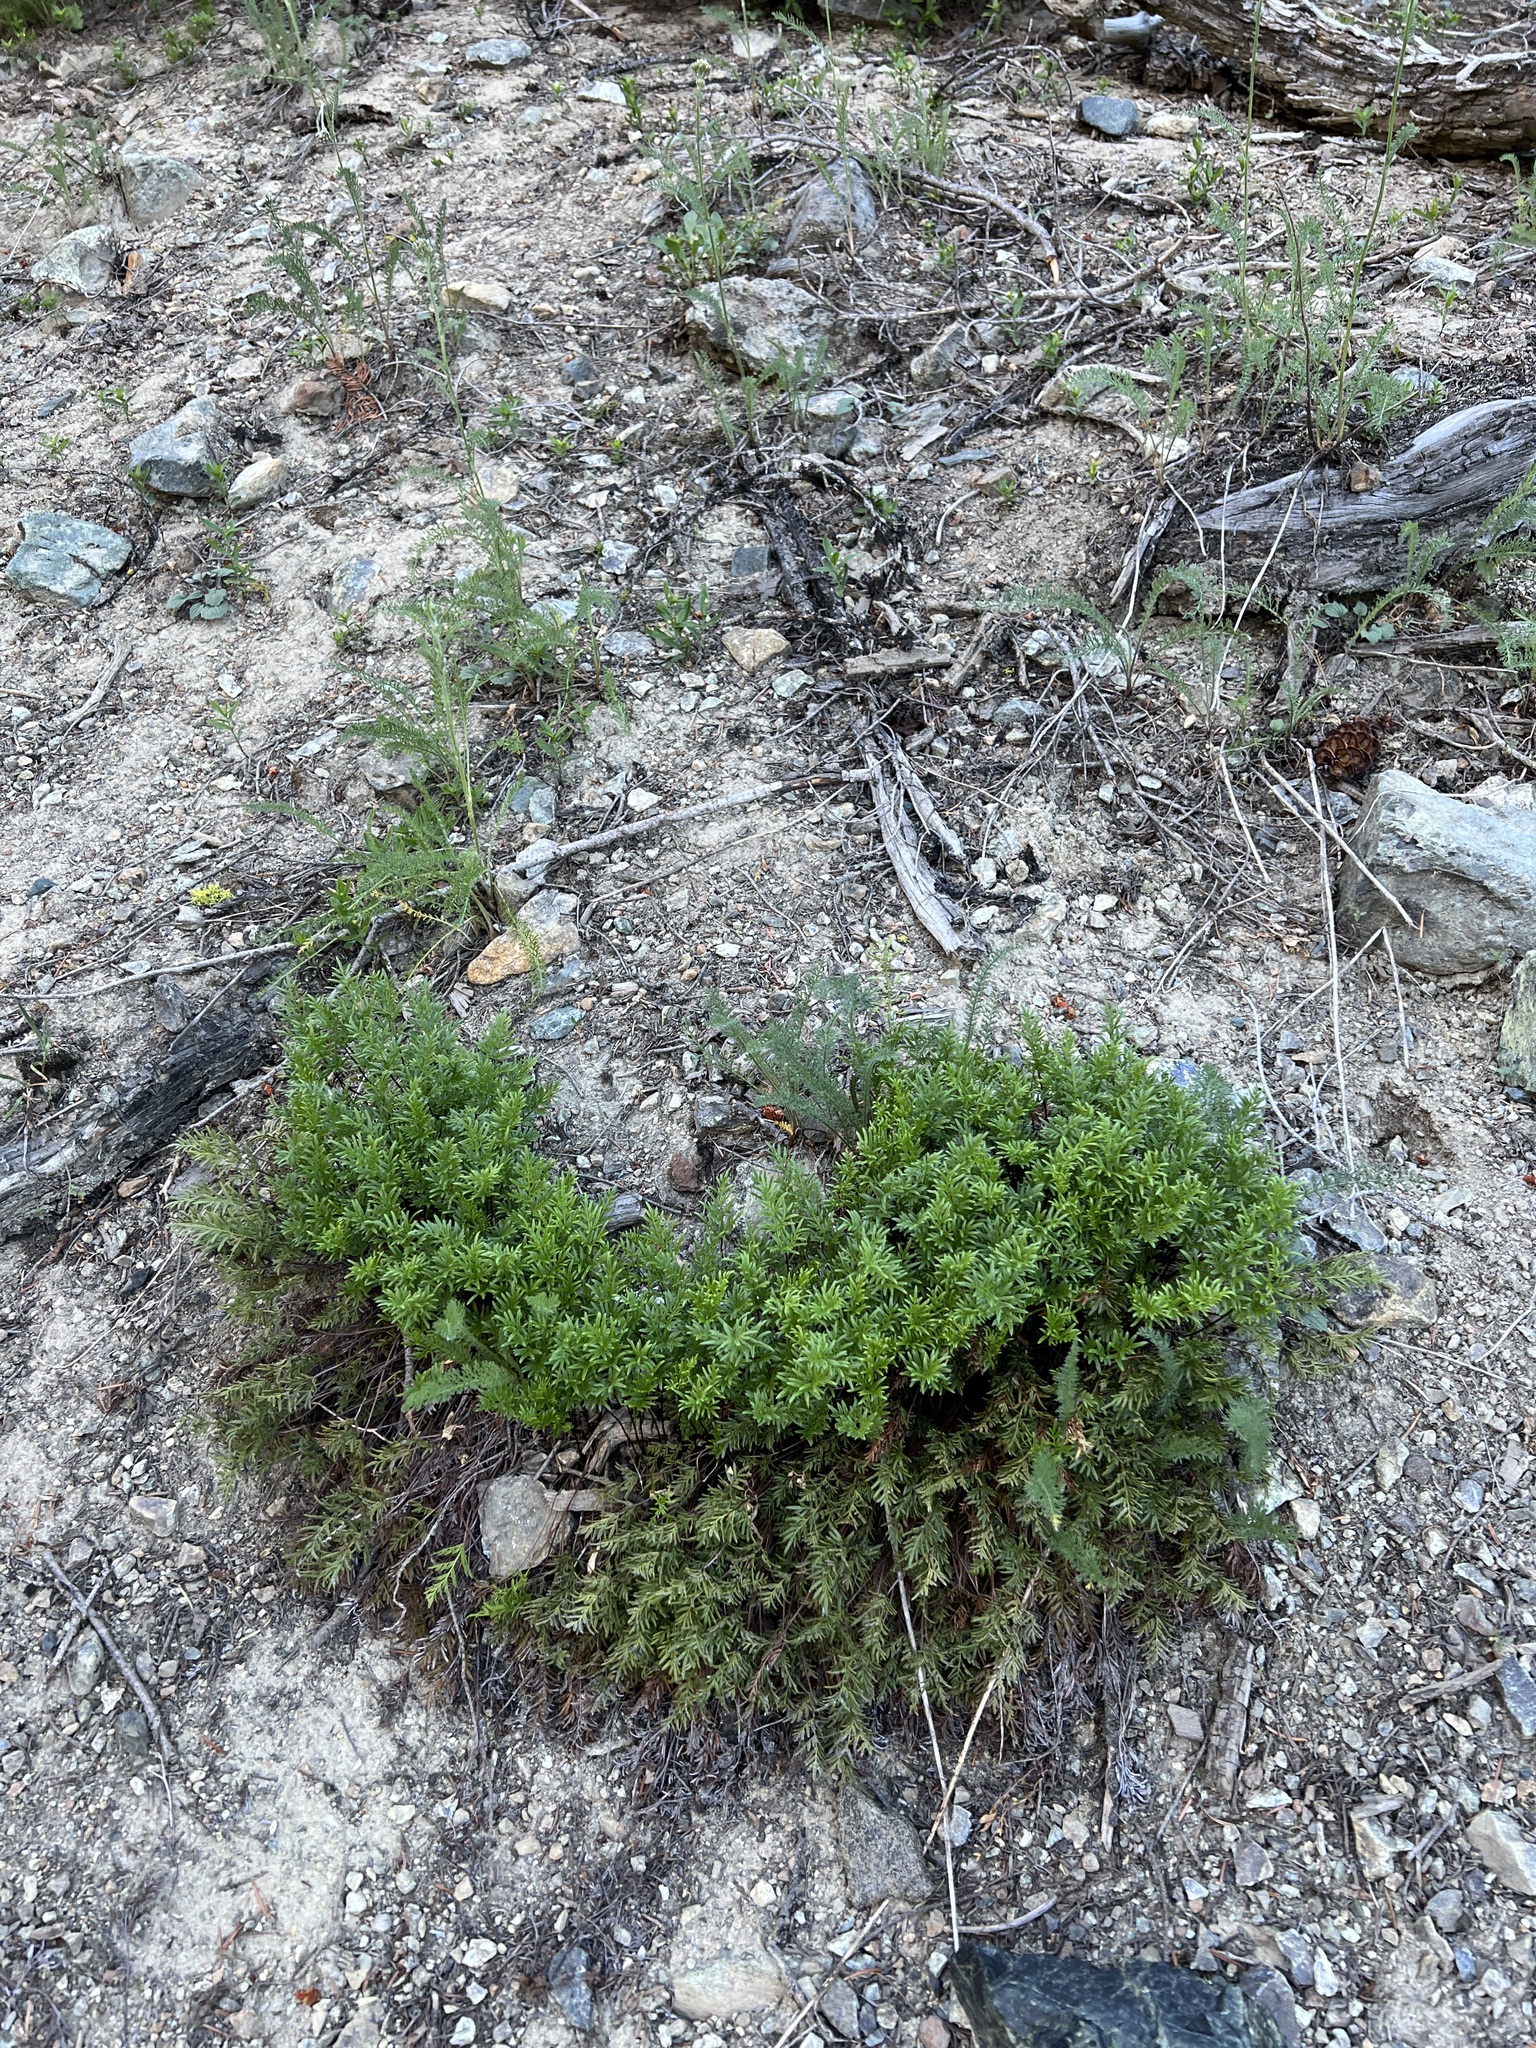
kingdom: Plantae
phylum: Tracheophyta
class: Polypodiopsida
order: Polypodiales
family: Pteridaceae
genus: Aspidotis
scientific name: Aspidotis densa
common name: Indian's dream
